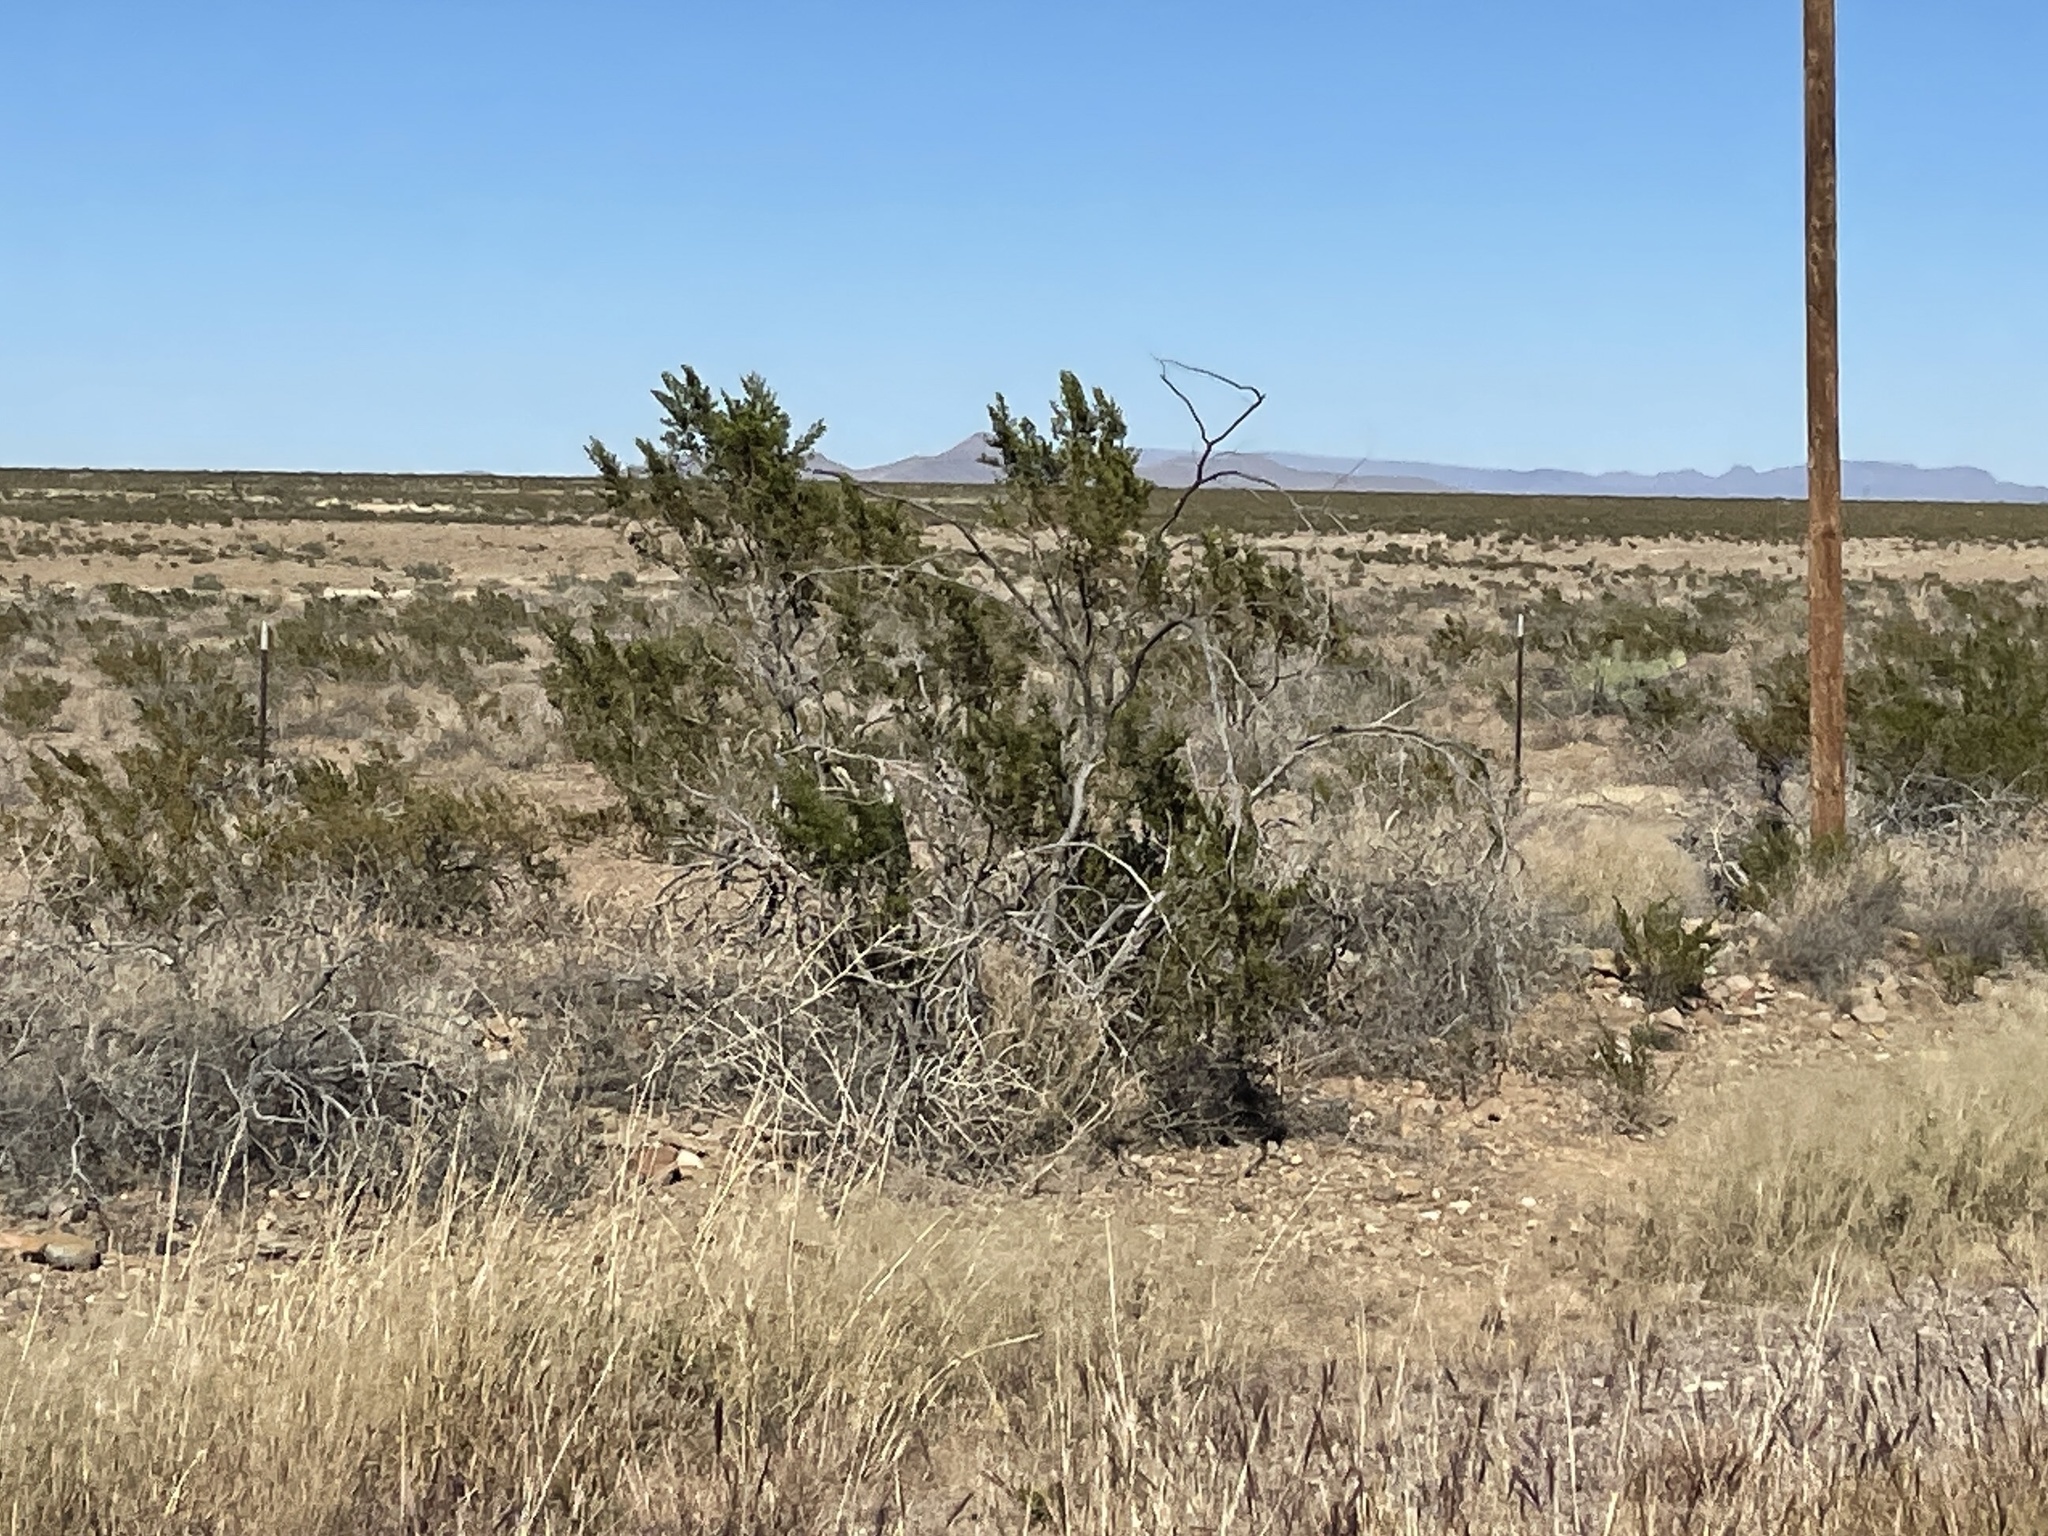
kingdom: Plantae
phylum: Tracheophyta
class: Magnoliopsida
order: Zygophyllales
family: Zygophyllaceae
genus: Larrea
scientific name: Larrea tridentata
